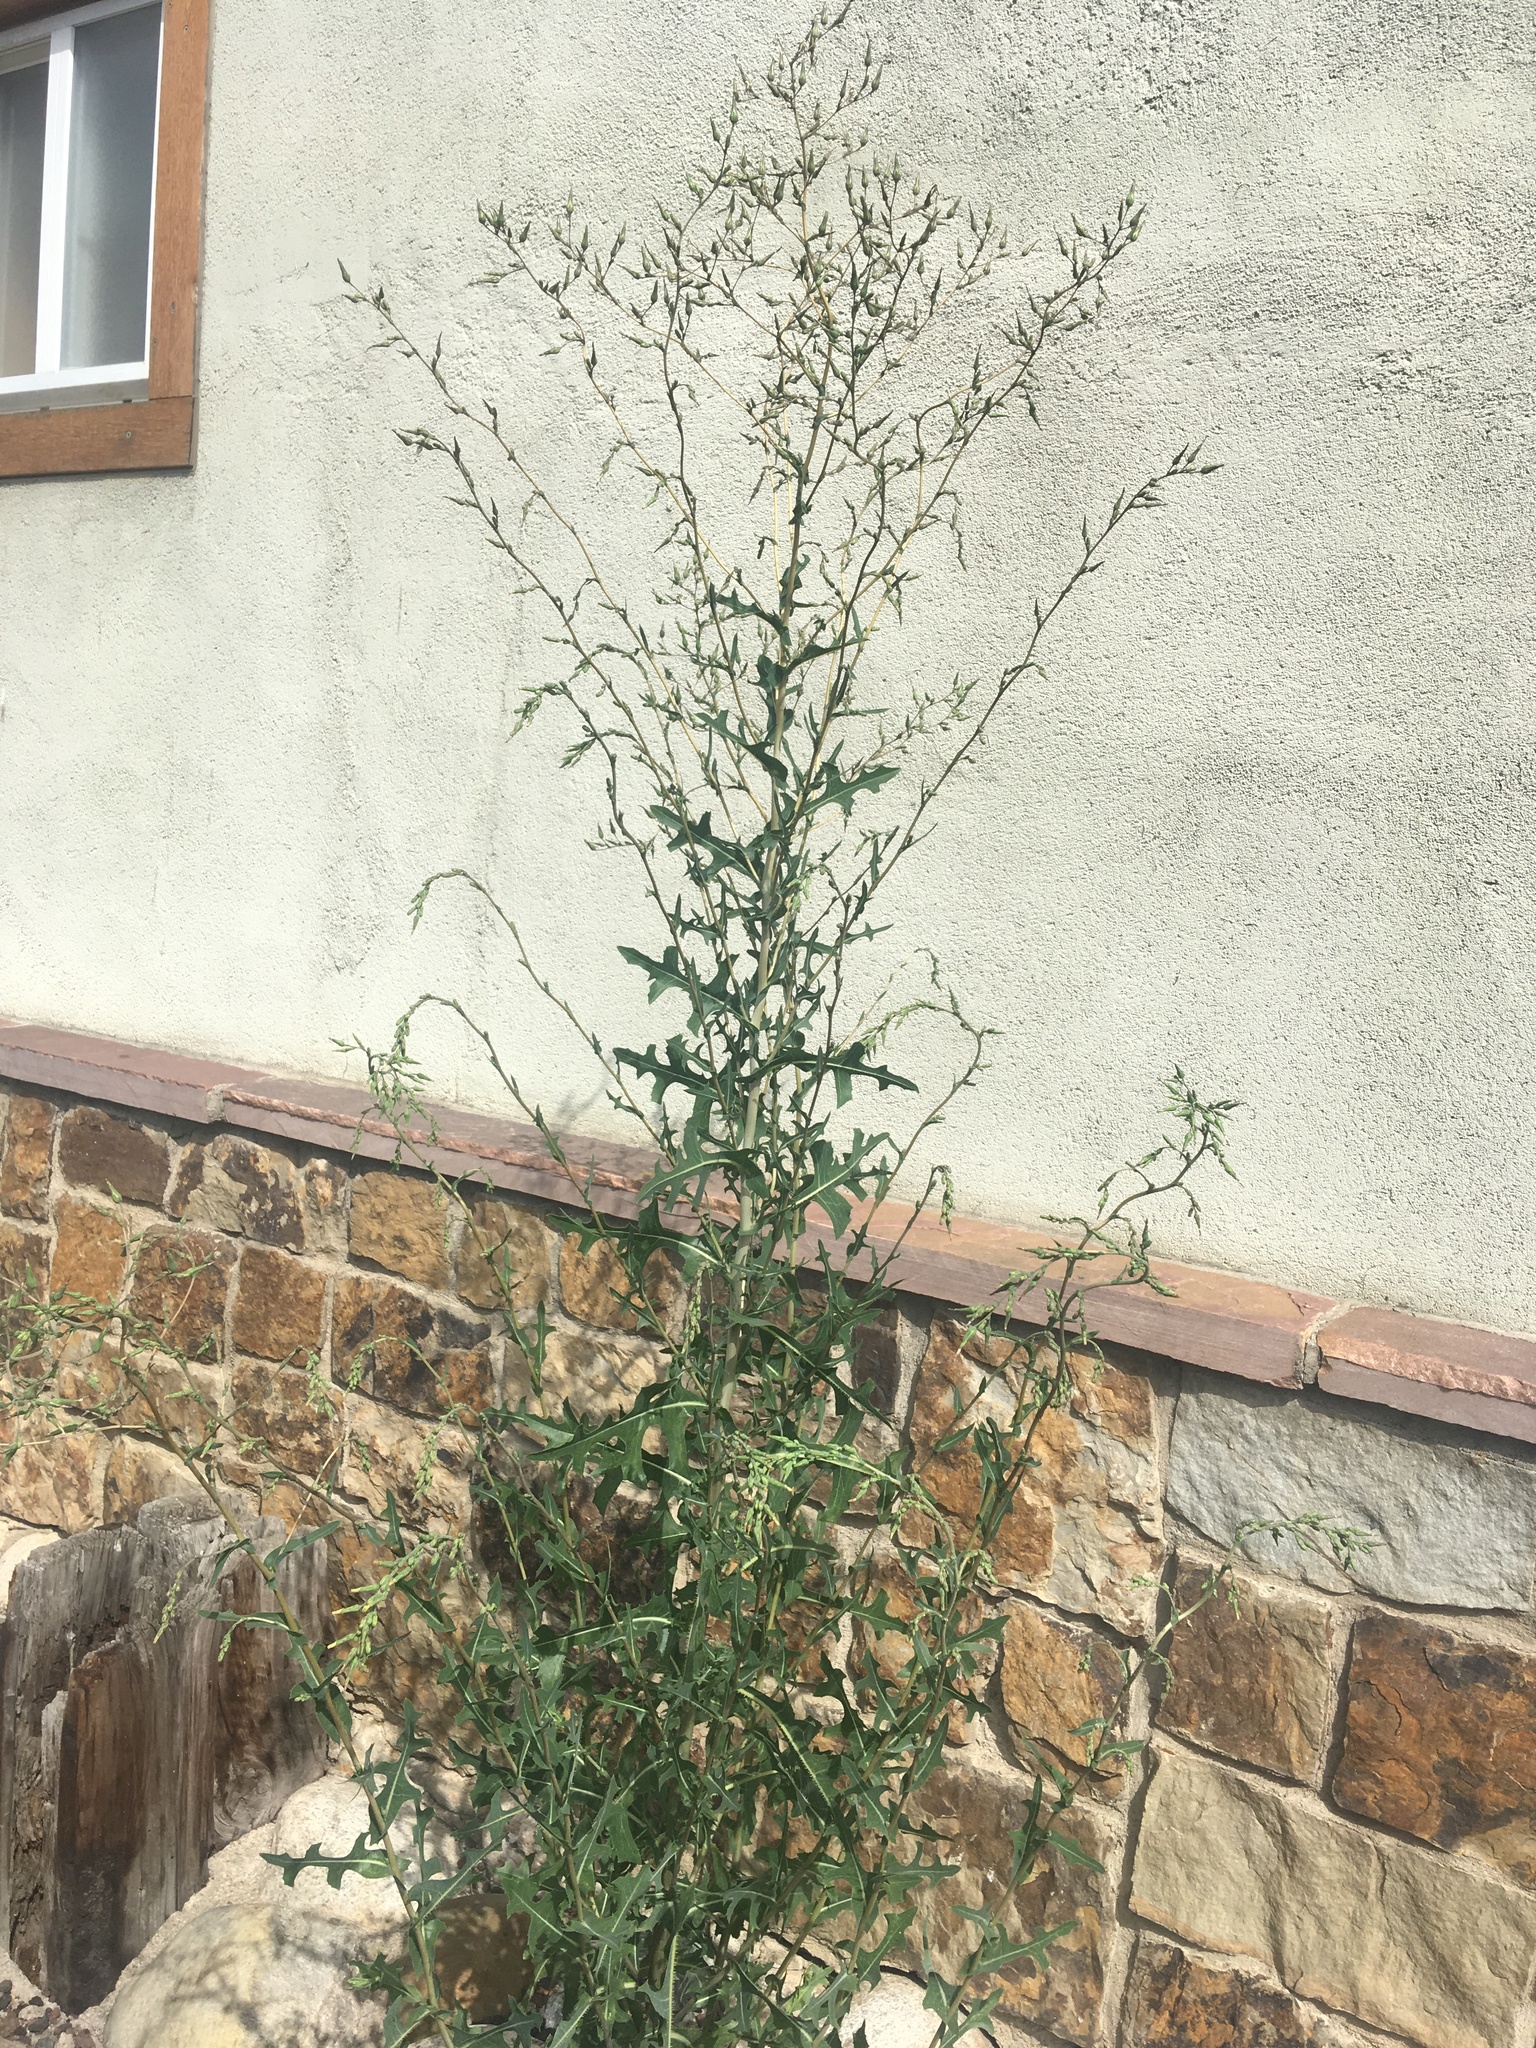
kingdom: Plantae
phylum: Tracheophyta
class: Magnoliopsida
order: Asterales
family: Asteraceae
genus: Lactuca
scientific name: Lactuca serriola
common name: Prickly lettuce
